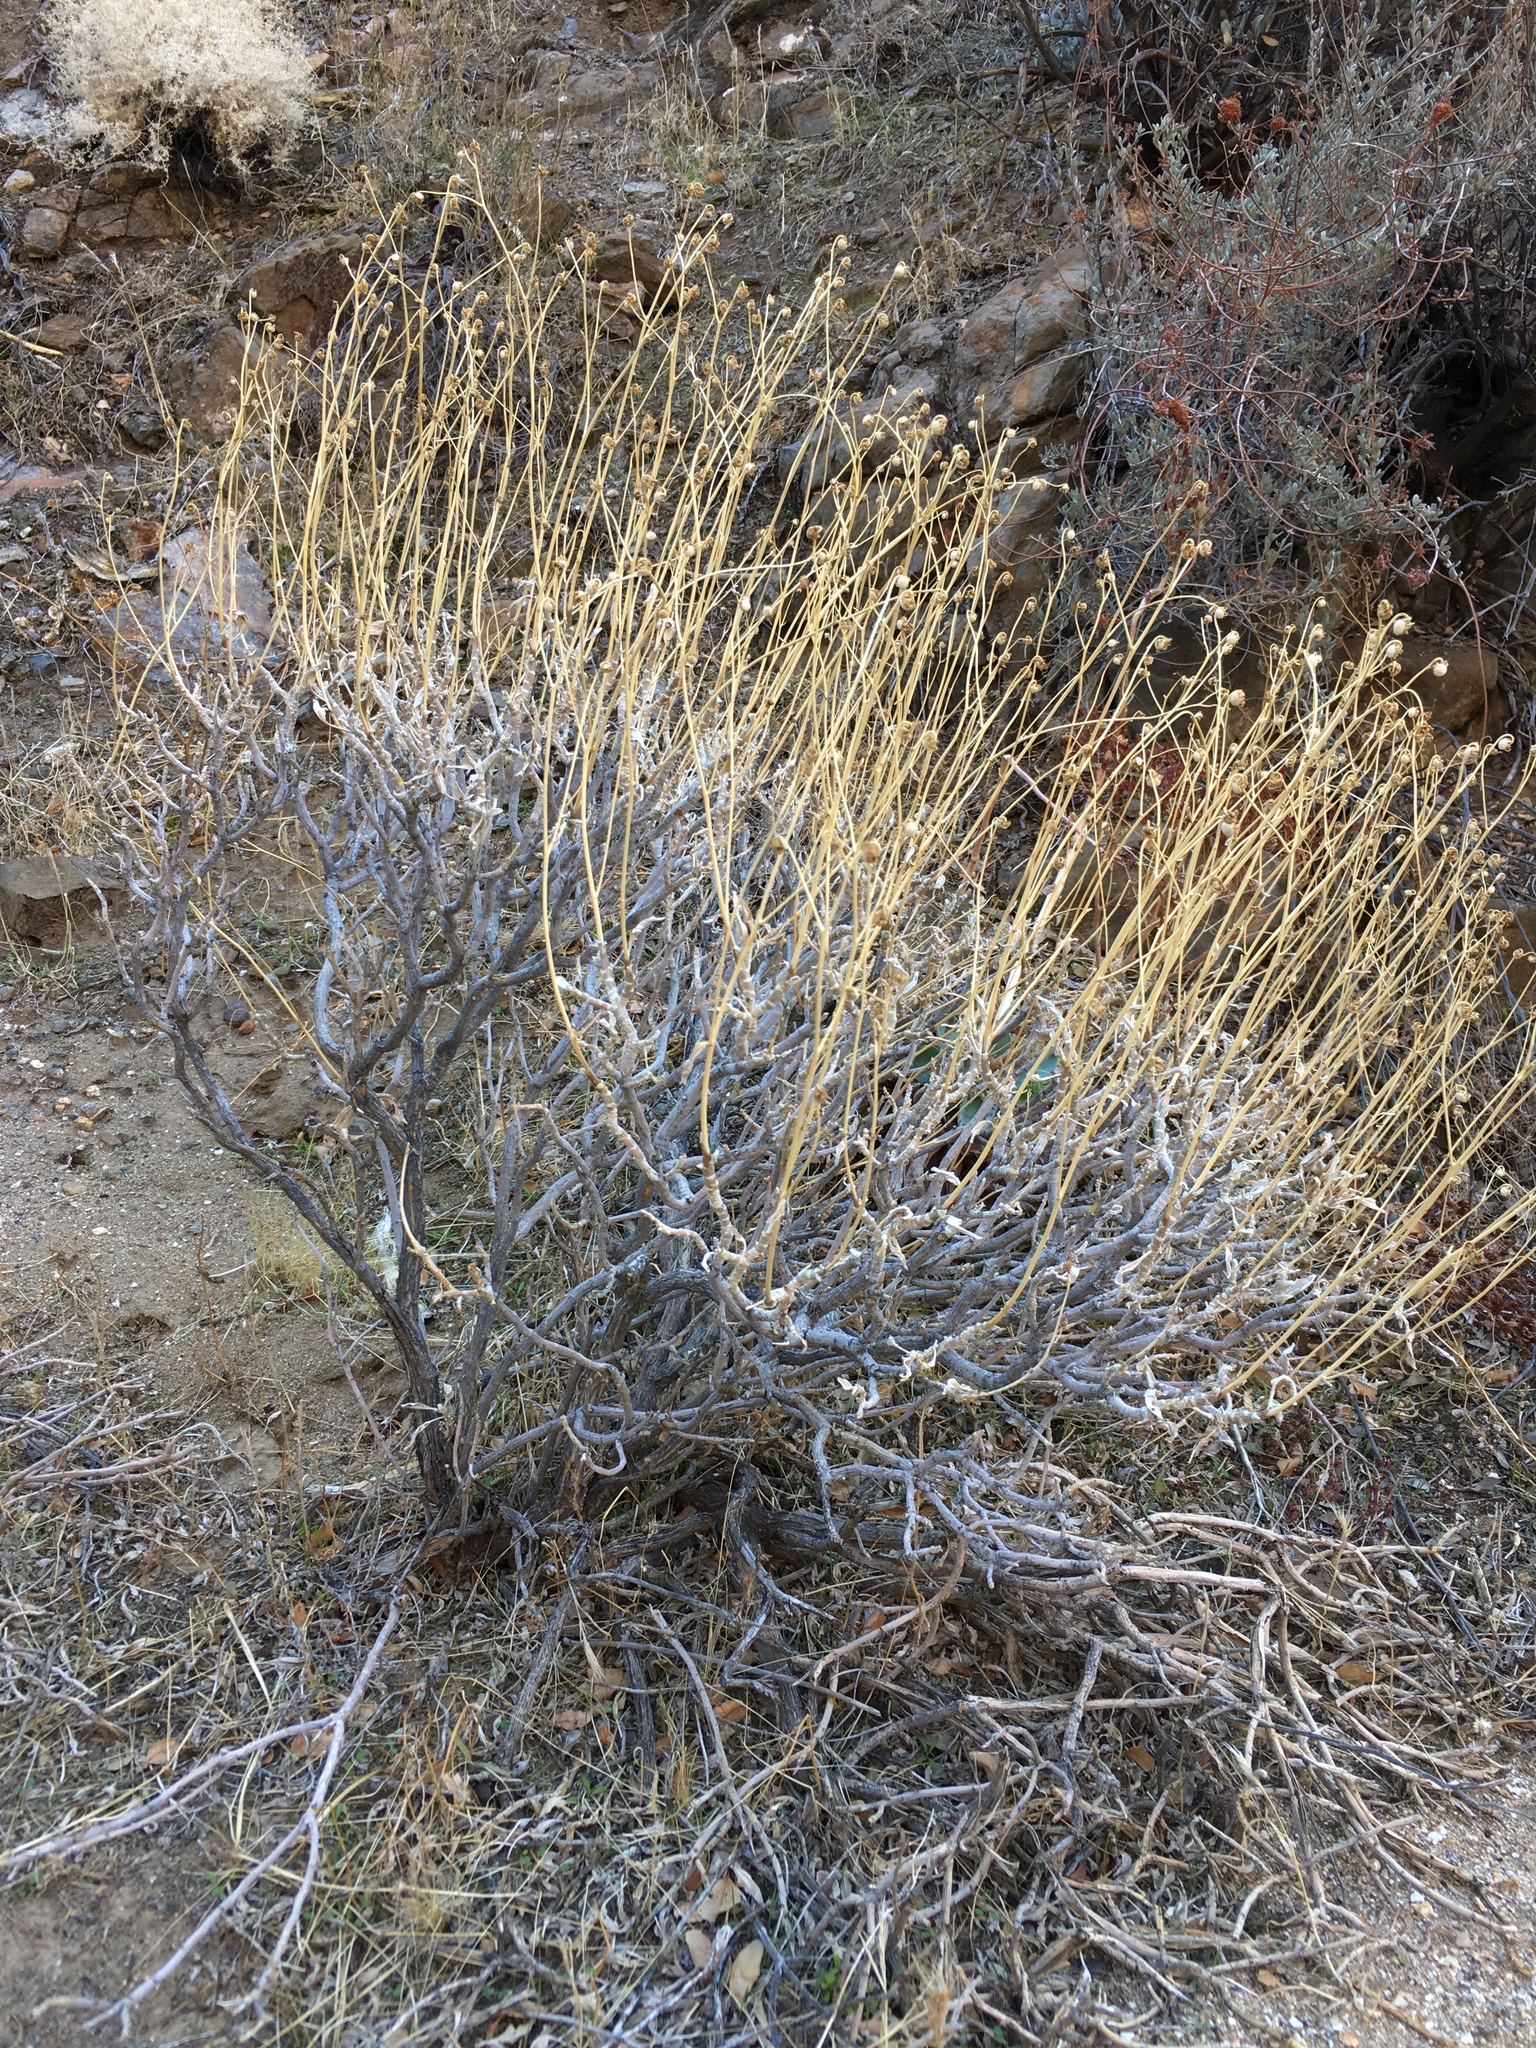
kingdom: Plantae
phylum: Tracheophyta
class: Magnoliopsida
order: Asterales
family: Asteraceae
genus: Encelia
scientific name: Encelia farinosa
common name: Brittlebush
